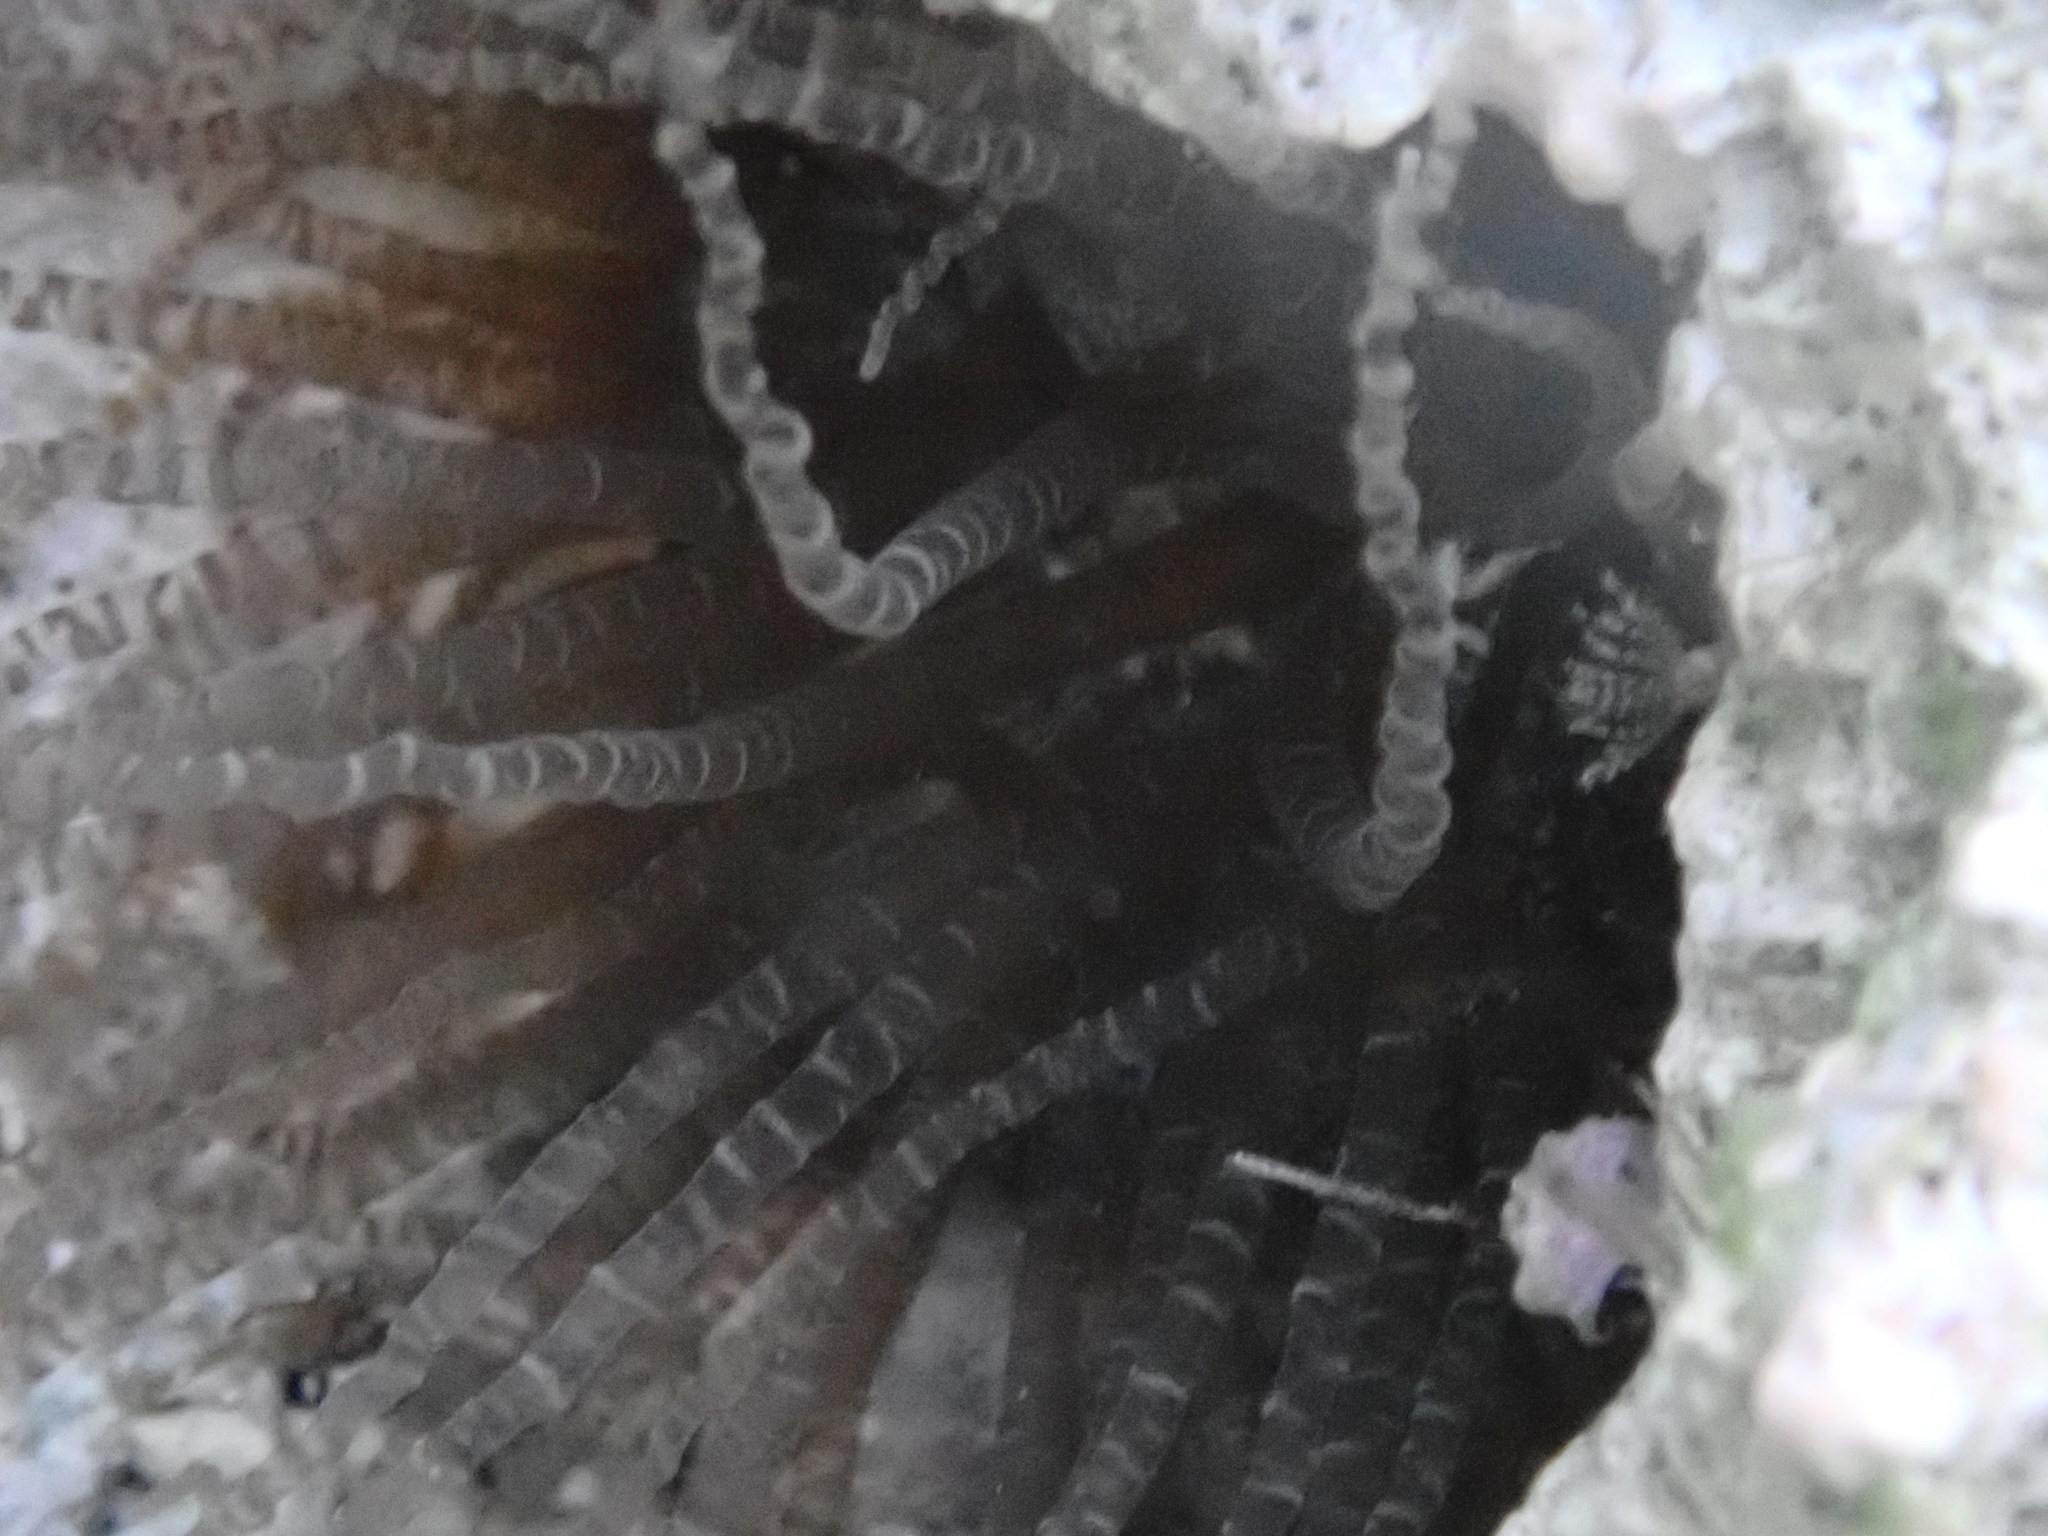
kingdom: Animalia
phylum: Cnidaria
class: Anthozoa
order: Actiniaria
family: Aiptasiidae
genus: Bartholomea
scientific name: Bartholomea annulata
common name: Corkscrew anemone
